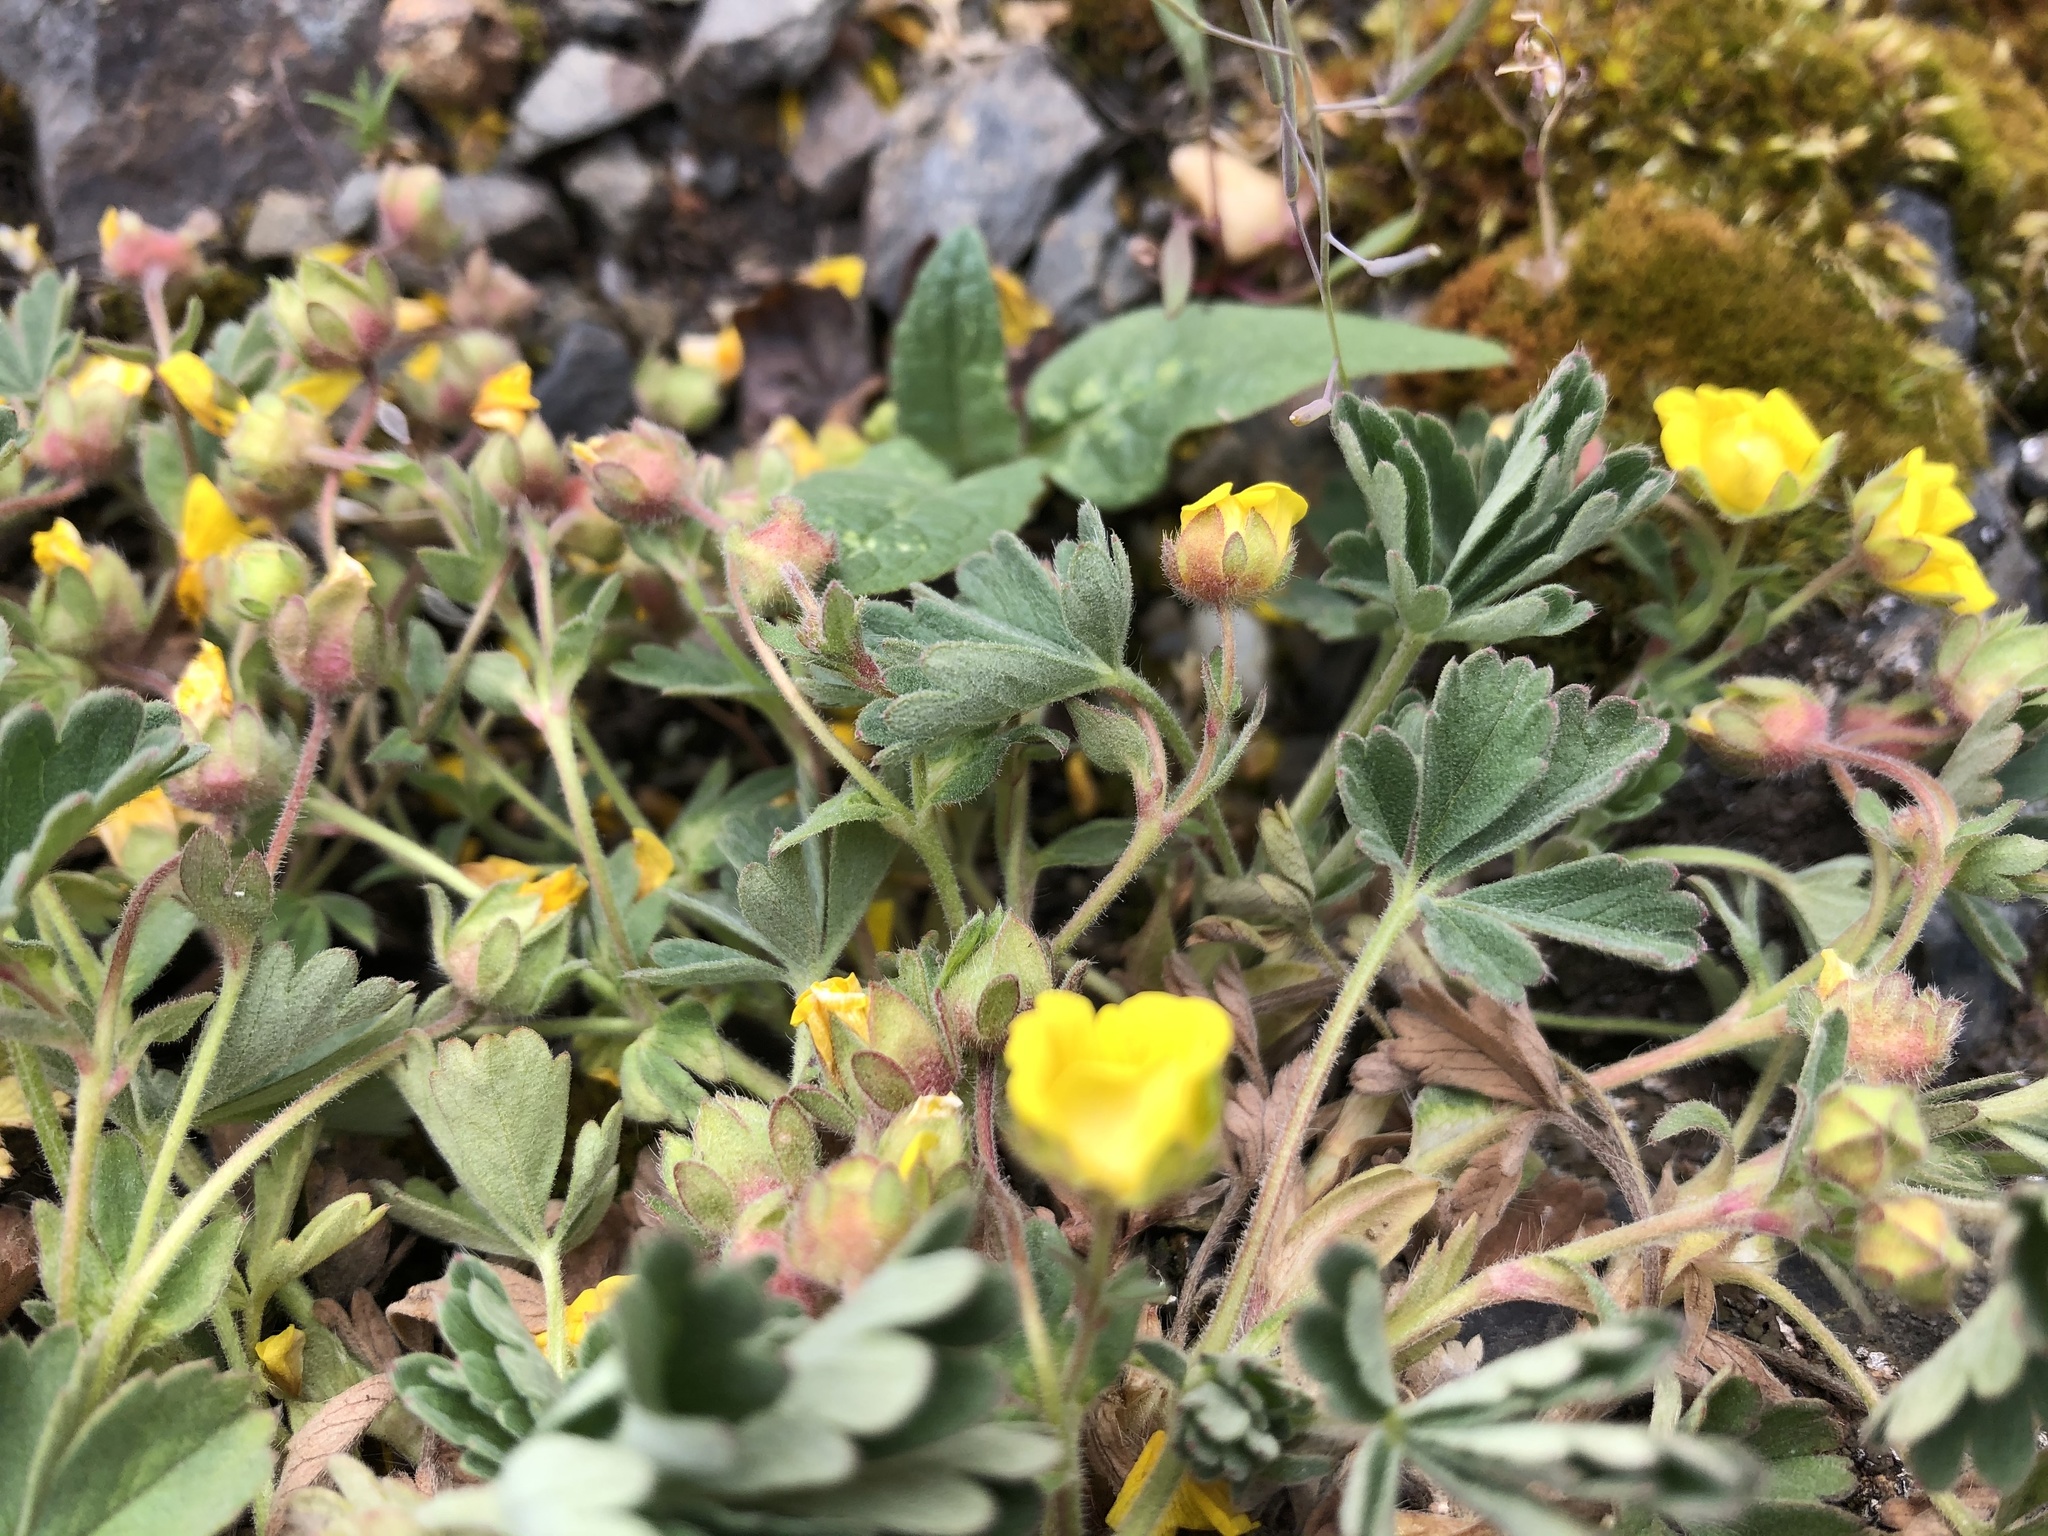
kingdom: Plantae
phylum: Tracheophyta
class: Magnoliopsida
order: Rosales
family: Rosaceae
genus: Potentilla
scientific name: Potentilla incana
